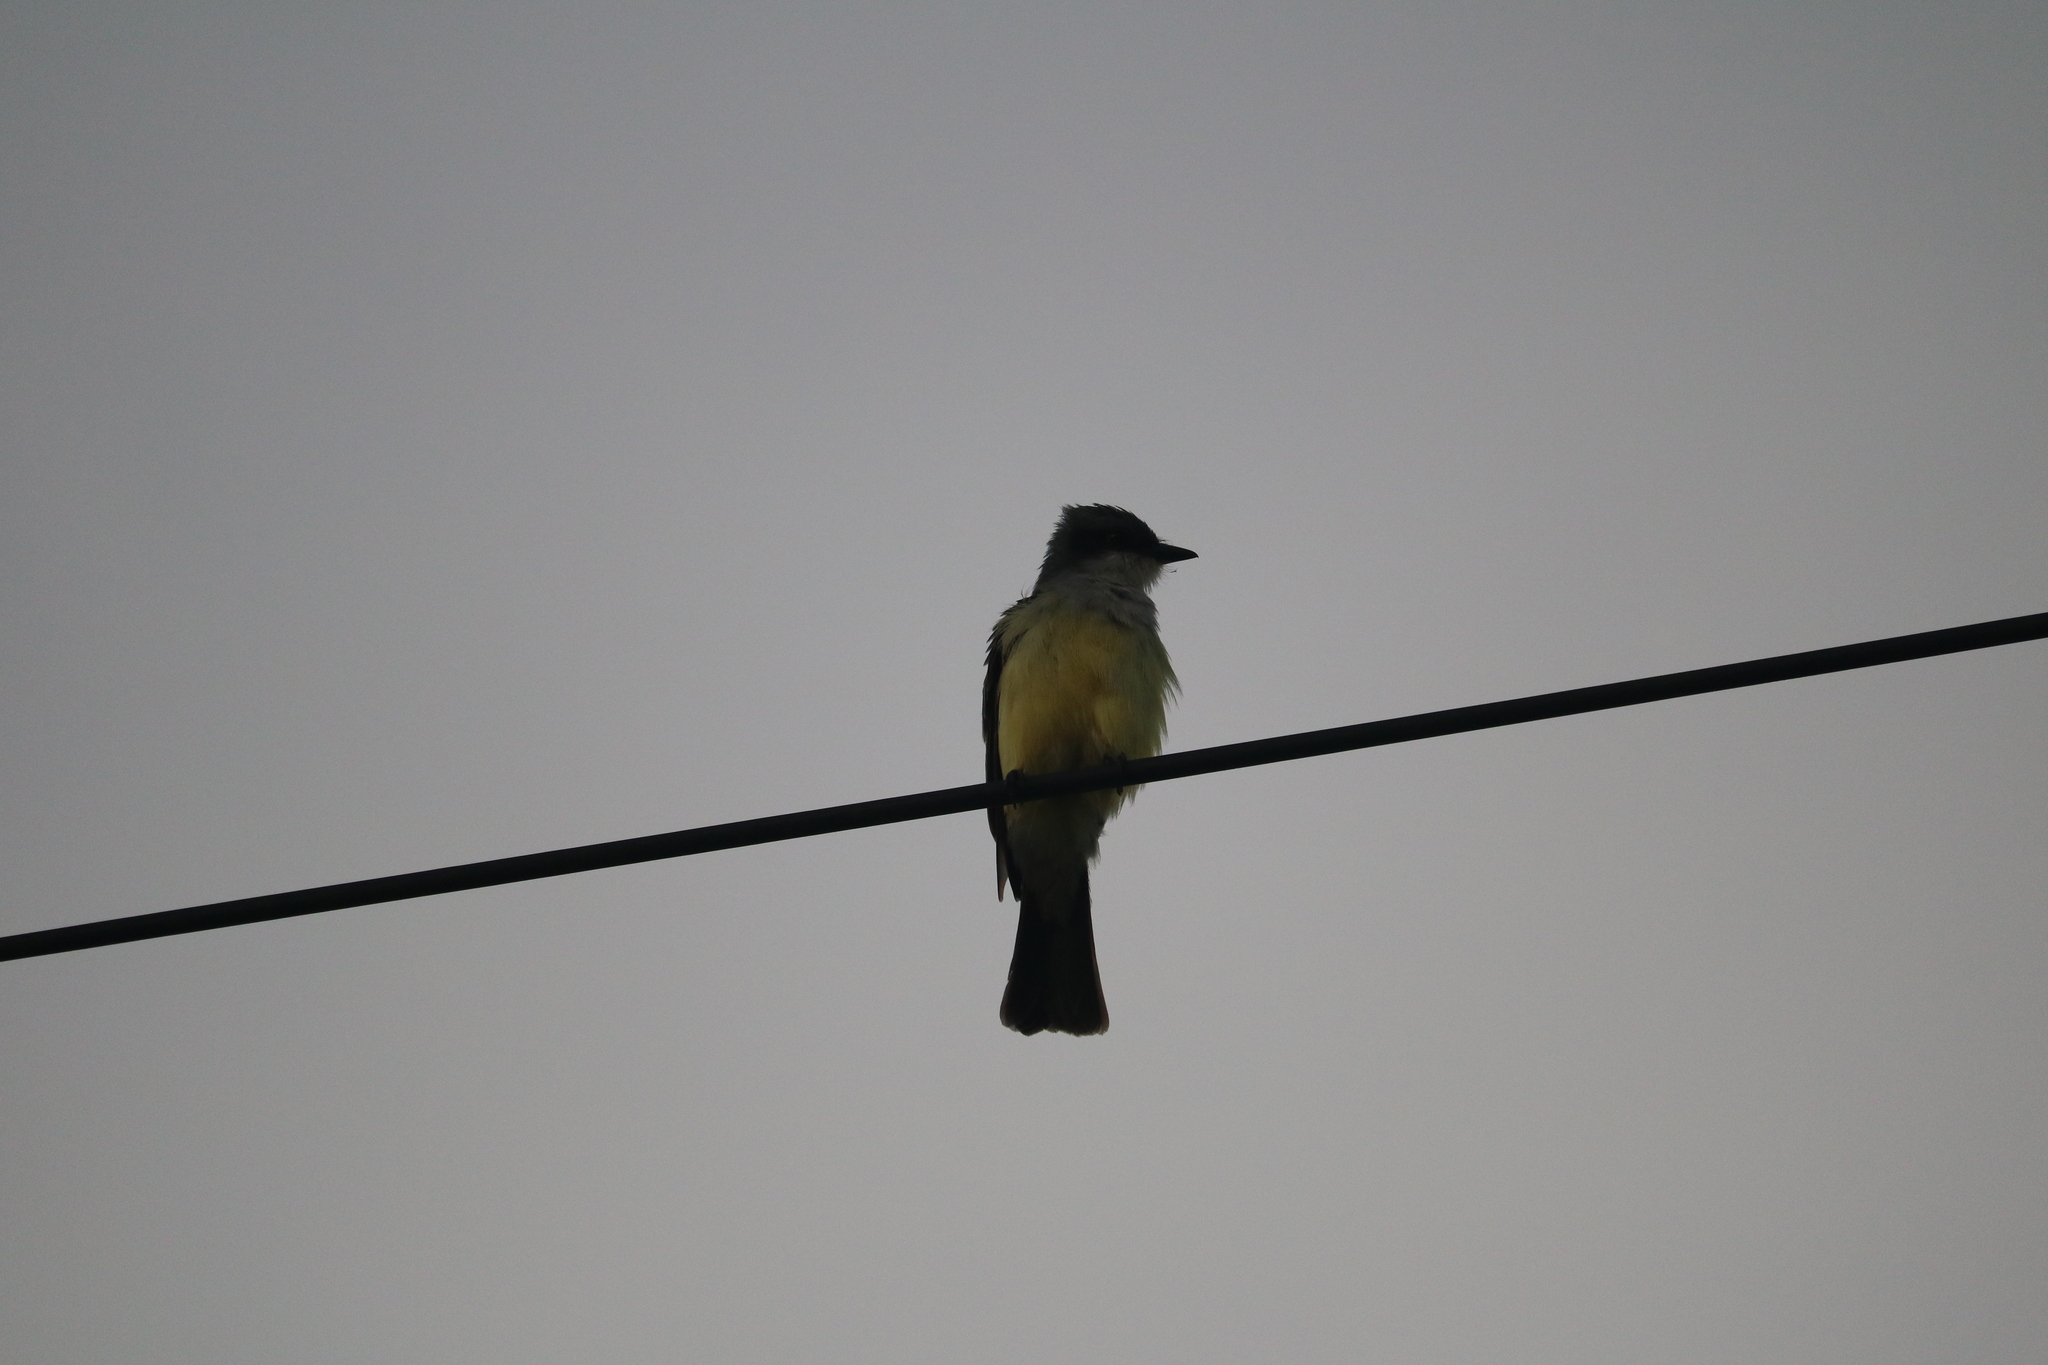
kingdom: Animalia
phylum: Chordata
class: Aves
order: Passeriformes
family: Tyrannidae
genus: Tyrannus
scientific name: Tyrannus niveigularis
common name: Snowy-throated kingbird
